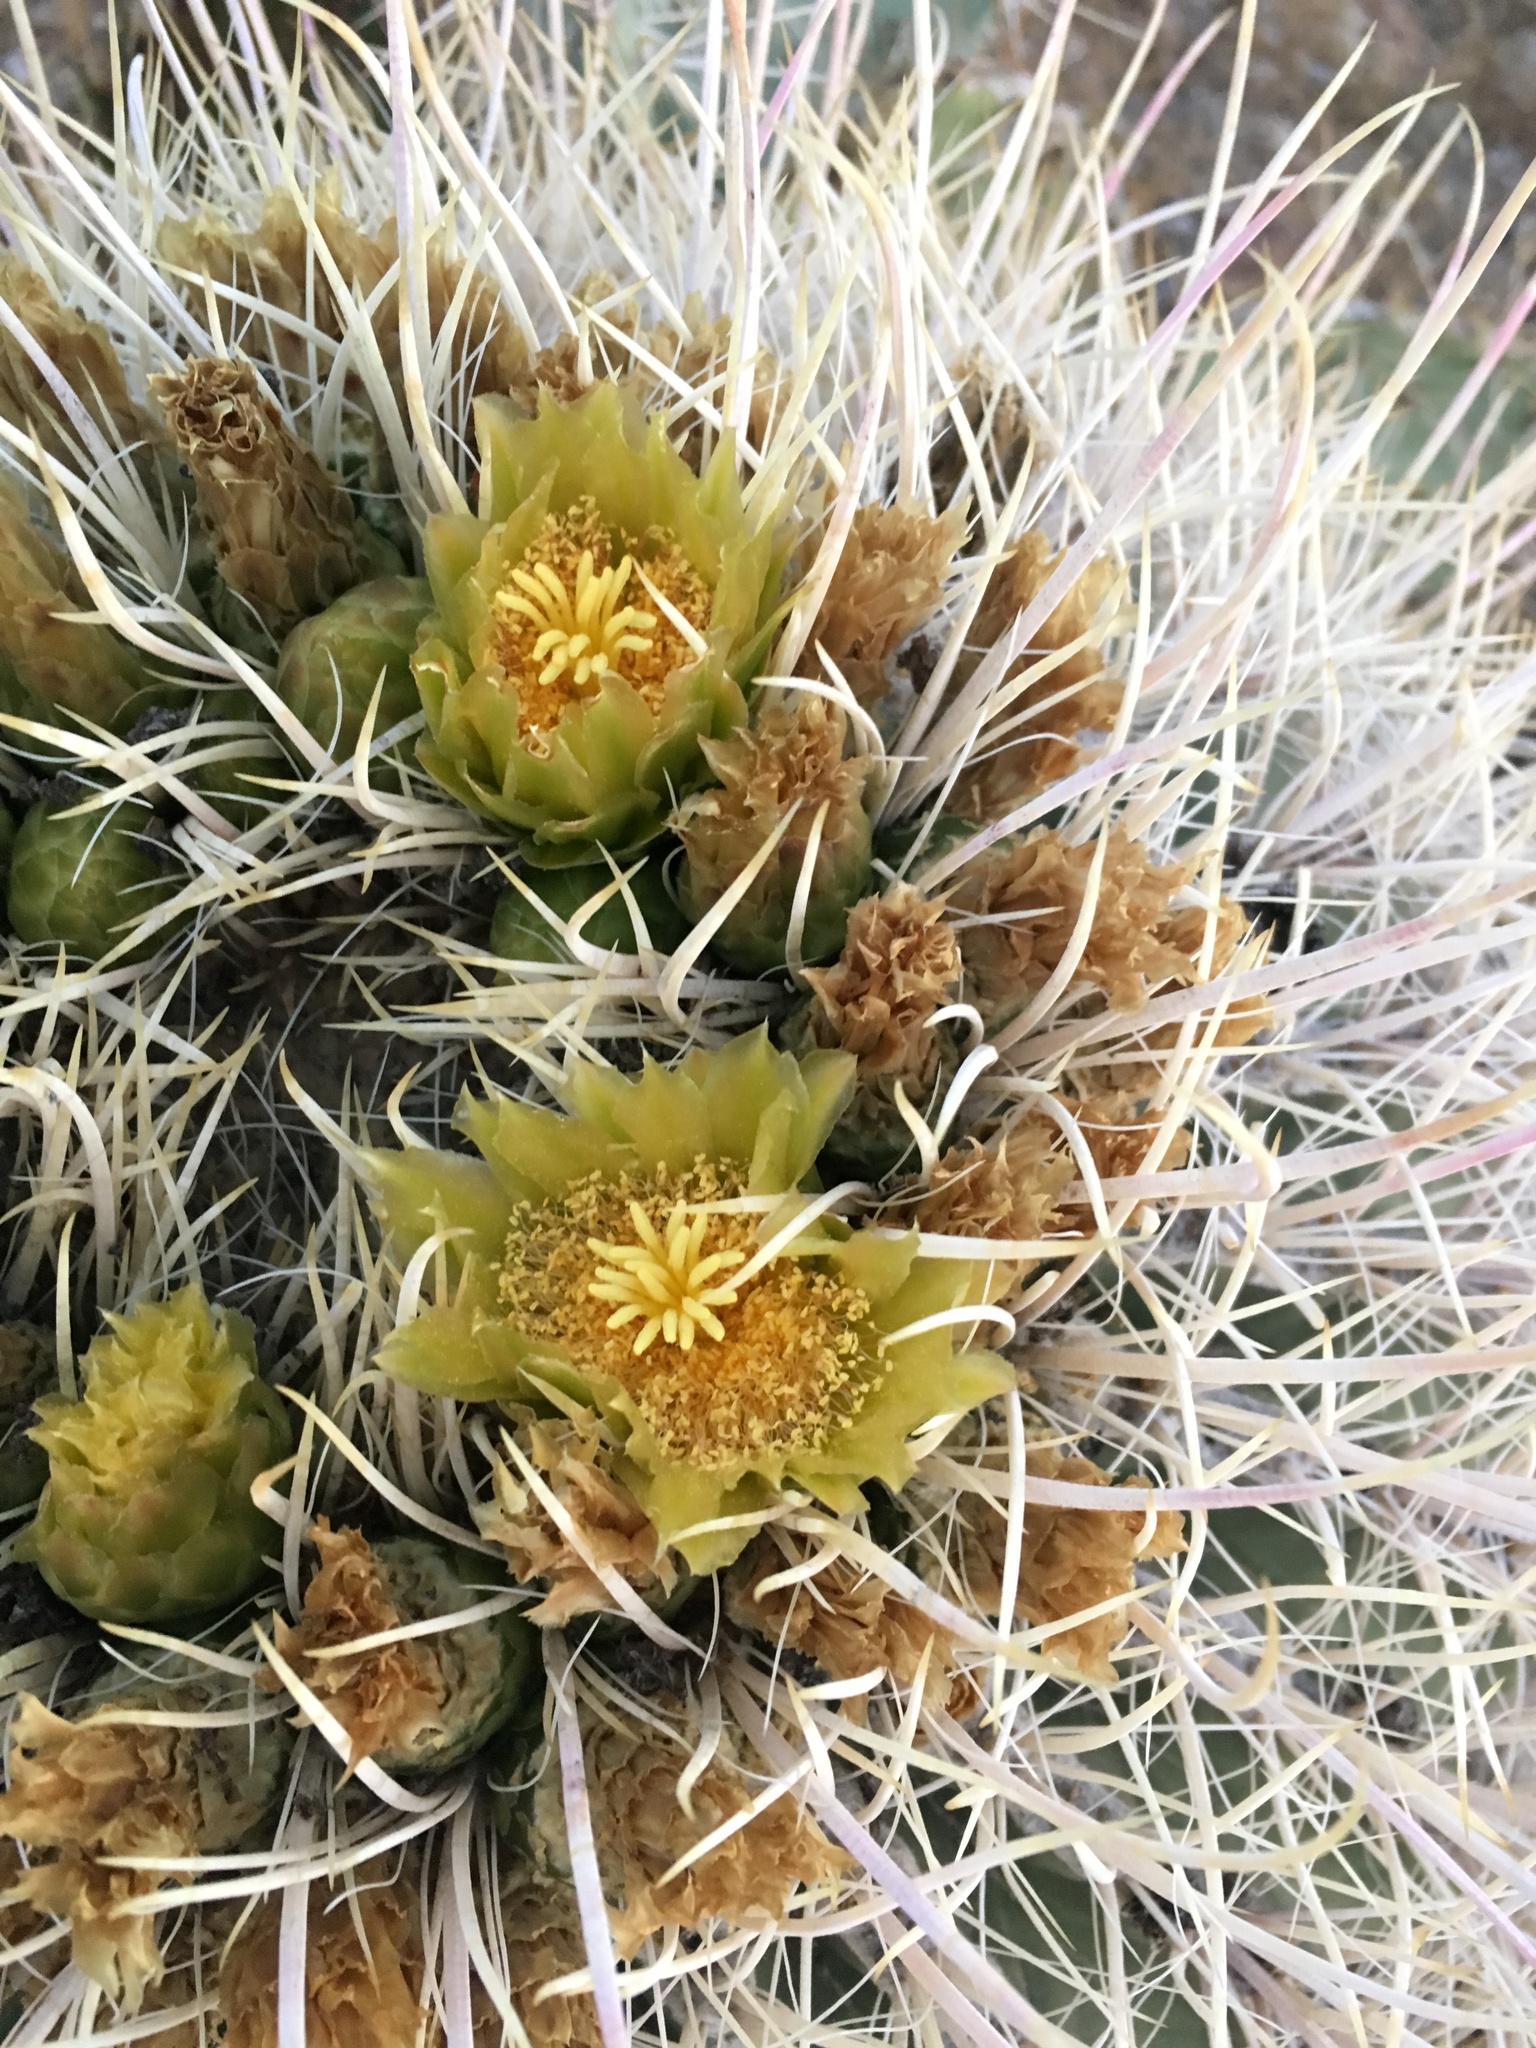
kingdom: Plantae
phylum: Tracheophyta
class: Magnoliopsida
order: Caryophyllales
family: Cactaceae
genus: Ferocactus
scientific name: Ferocactus cylindraceus
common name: California barrel cactus
